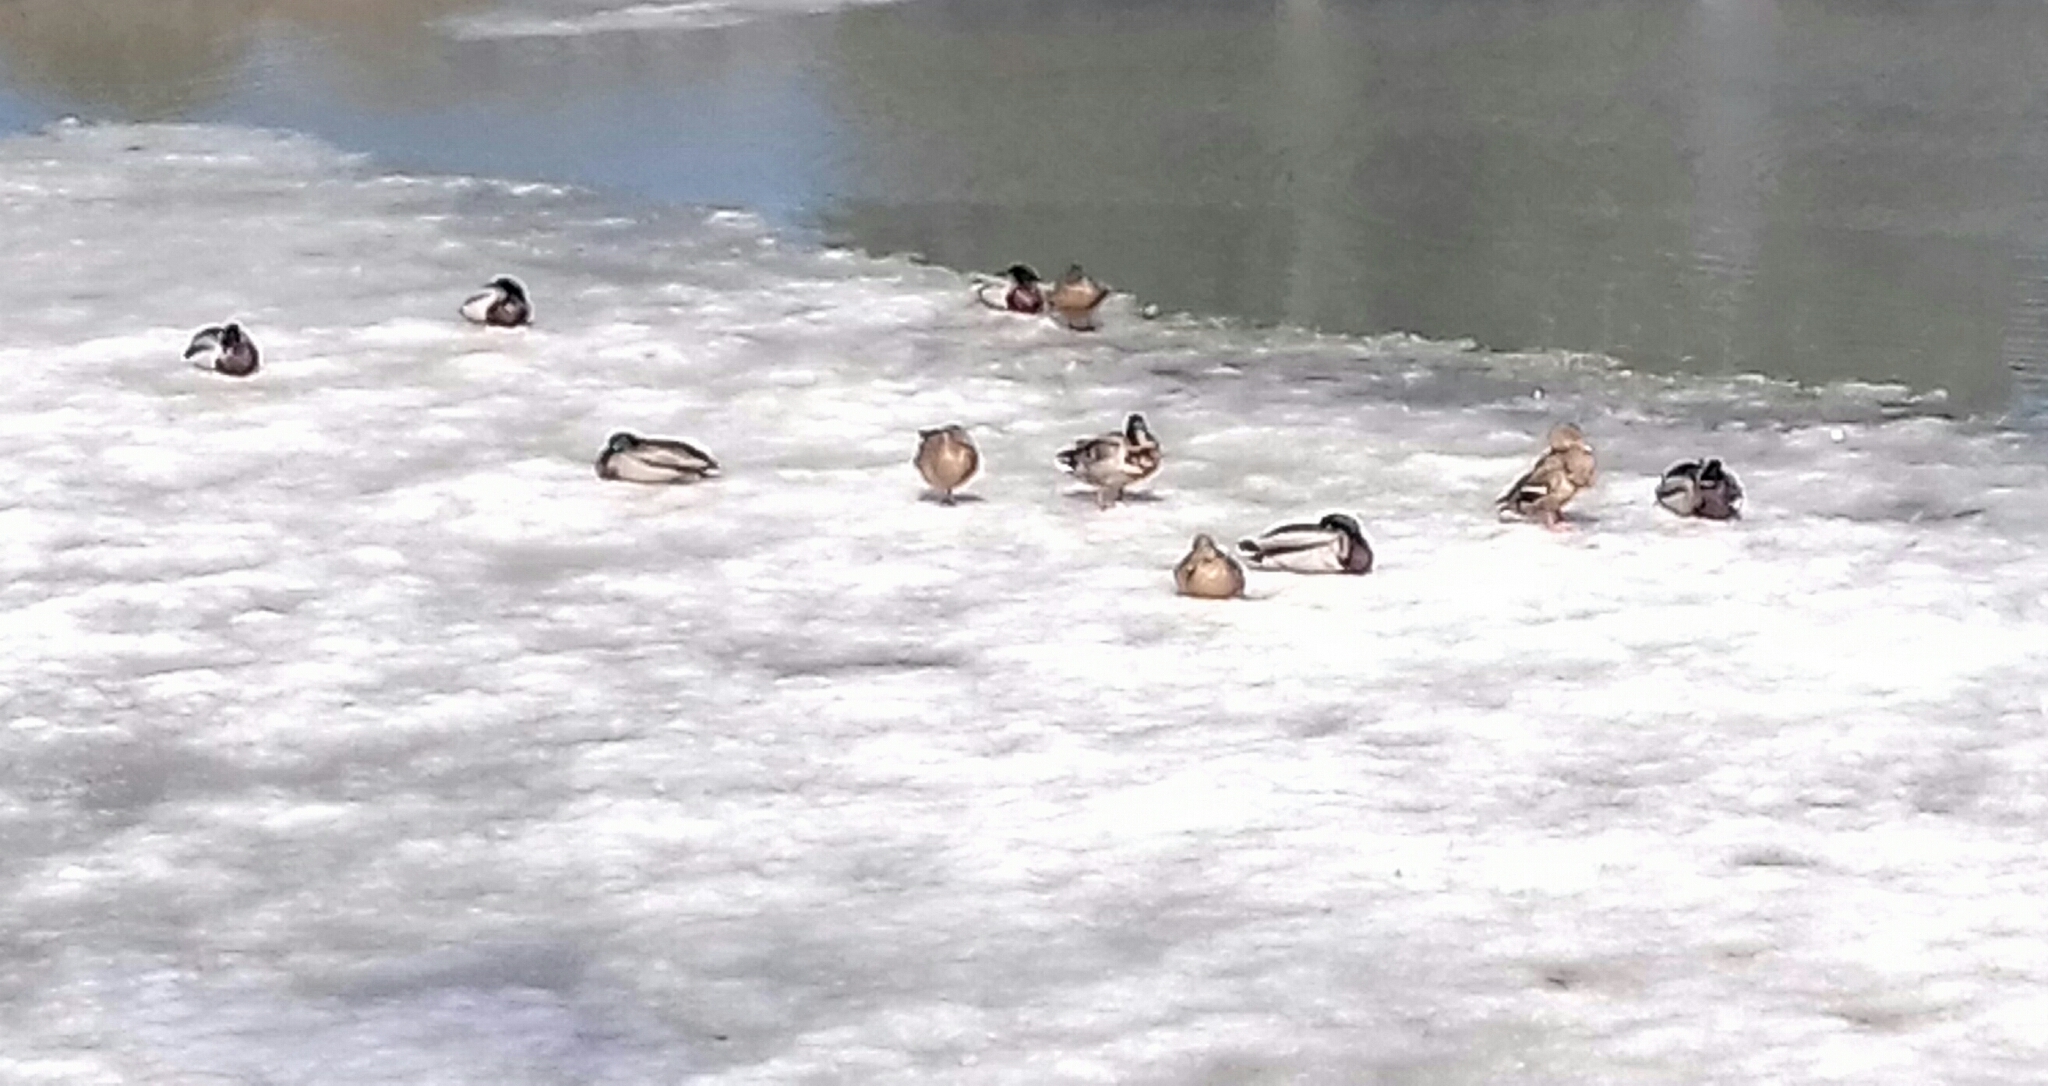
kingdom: Animalia
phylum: Chordata
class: Aves
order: Anseriformes
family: Anatidae
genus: Anas
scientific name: Anas platyrhynchos
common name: Mallard
